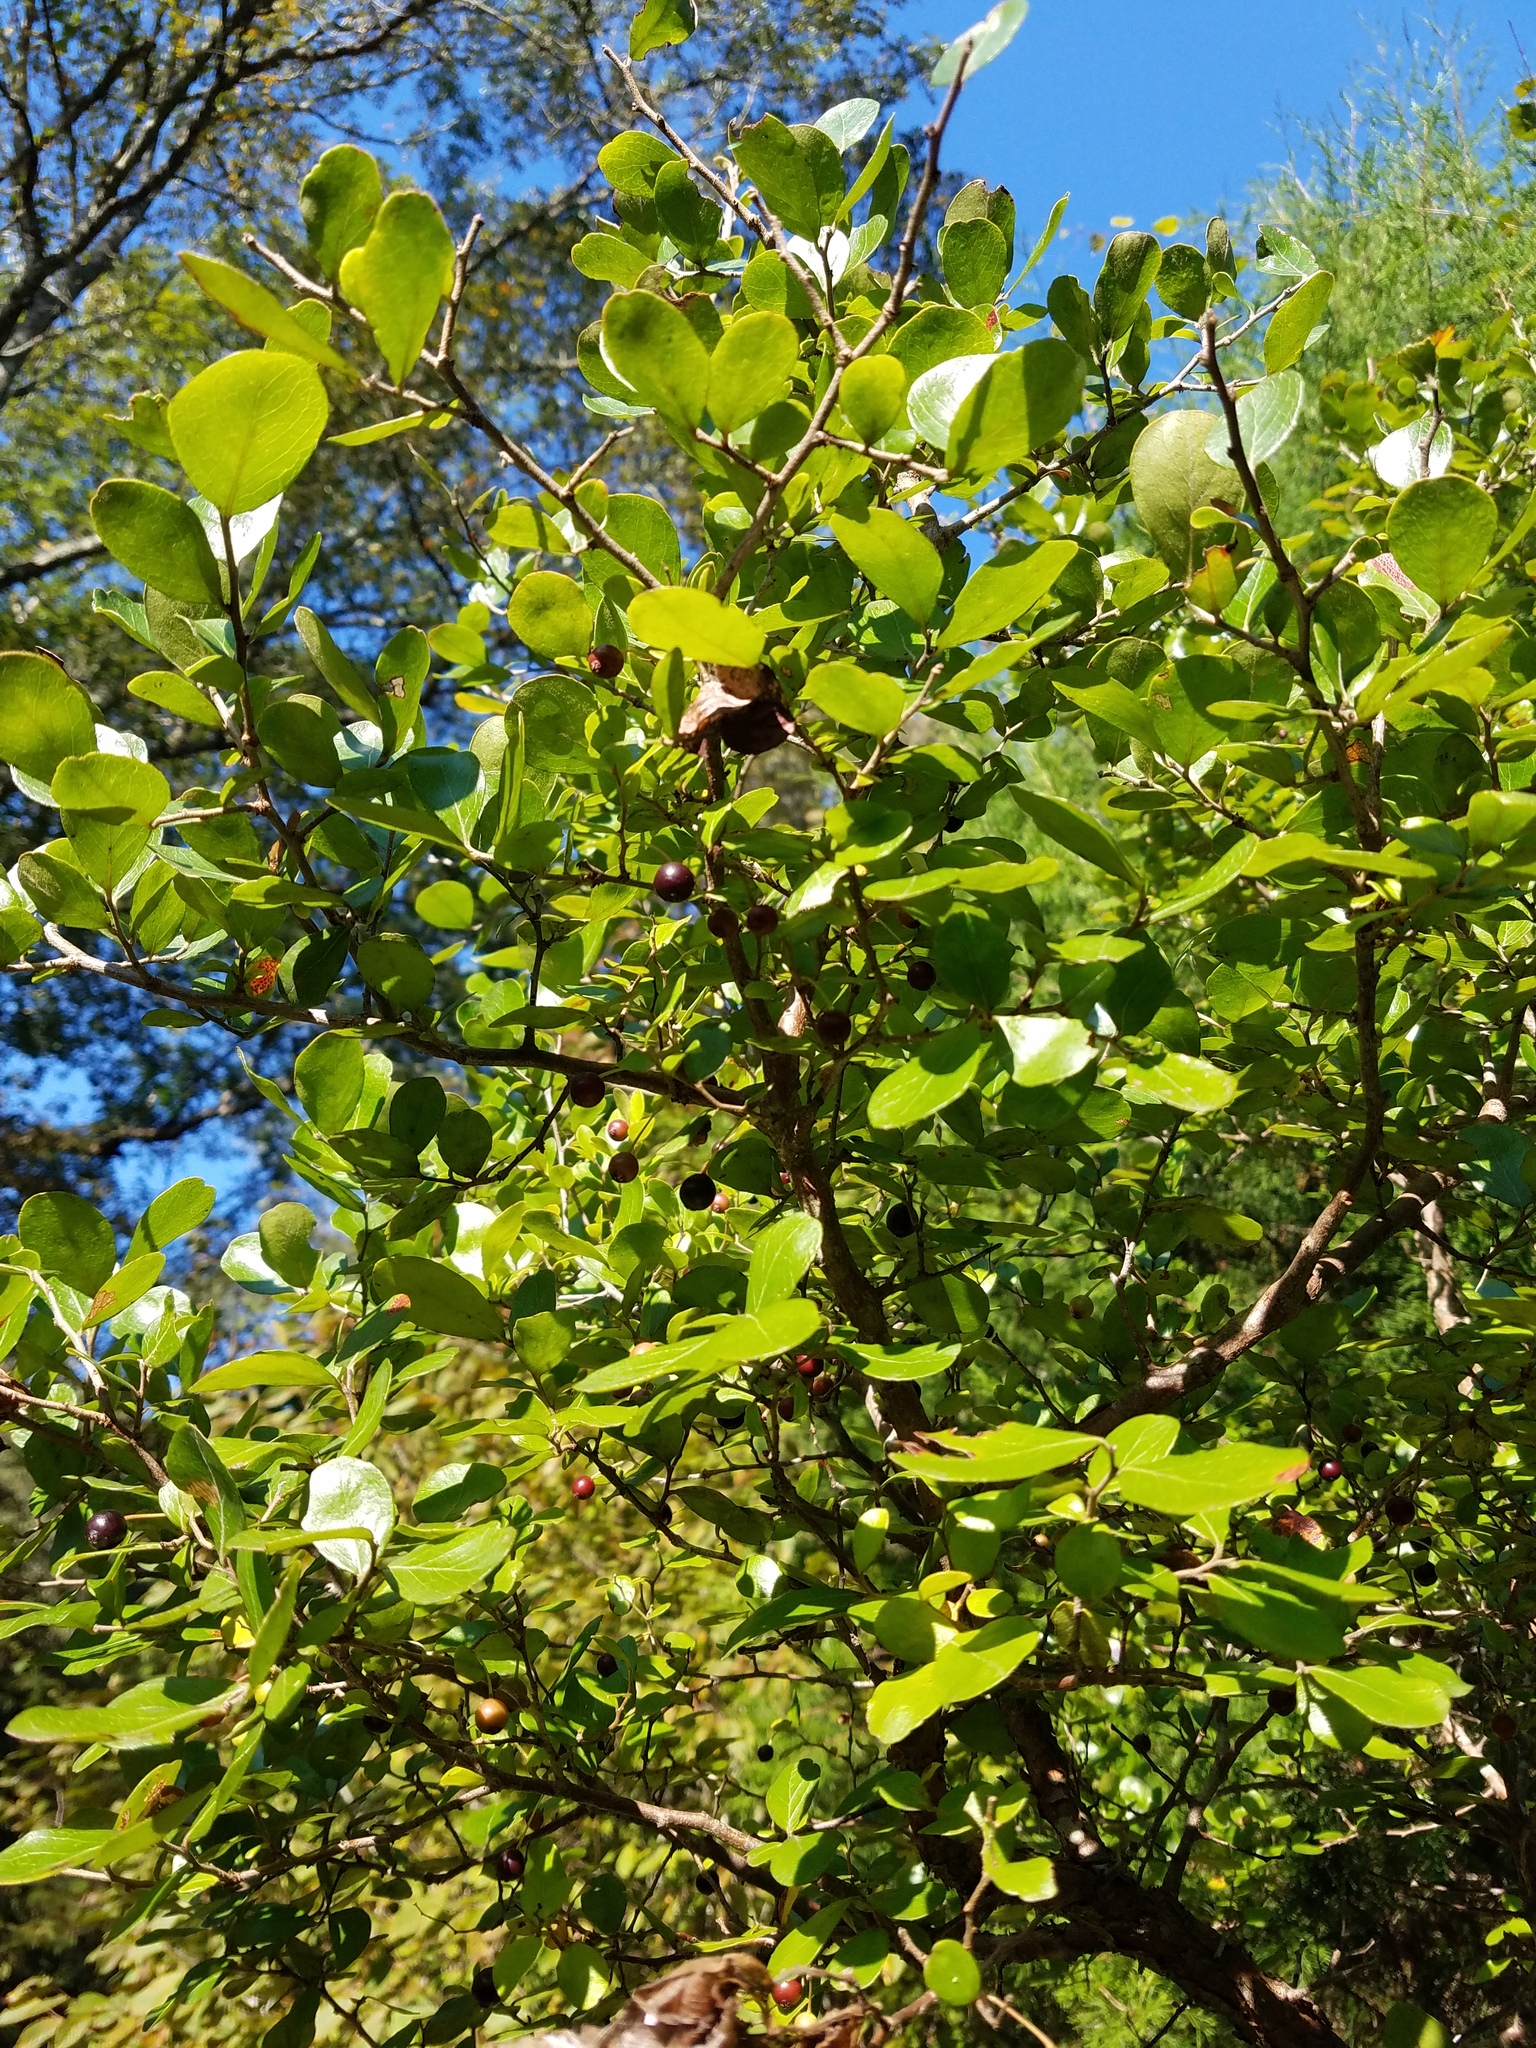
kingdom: Plantae
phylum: Tracheophyta
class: Magnoliopsida
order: Ericales
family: Ericaceae
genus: Vaccinium
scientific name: Vaccinium arboreum
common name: Farkleberry
